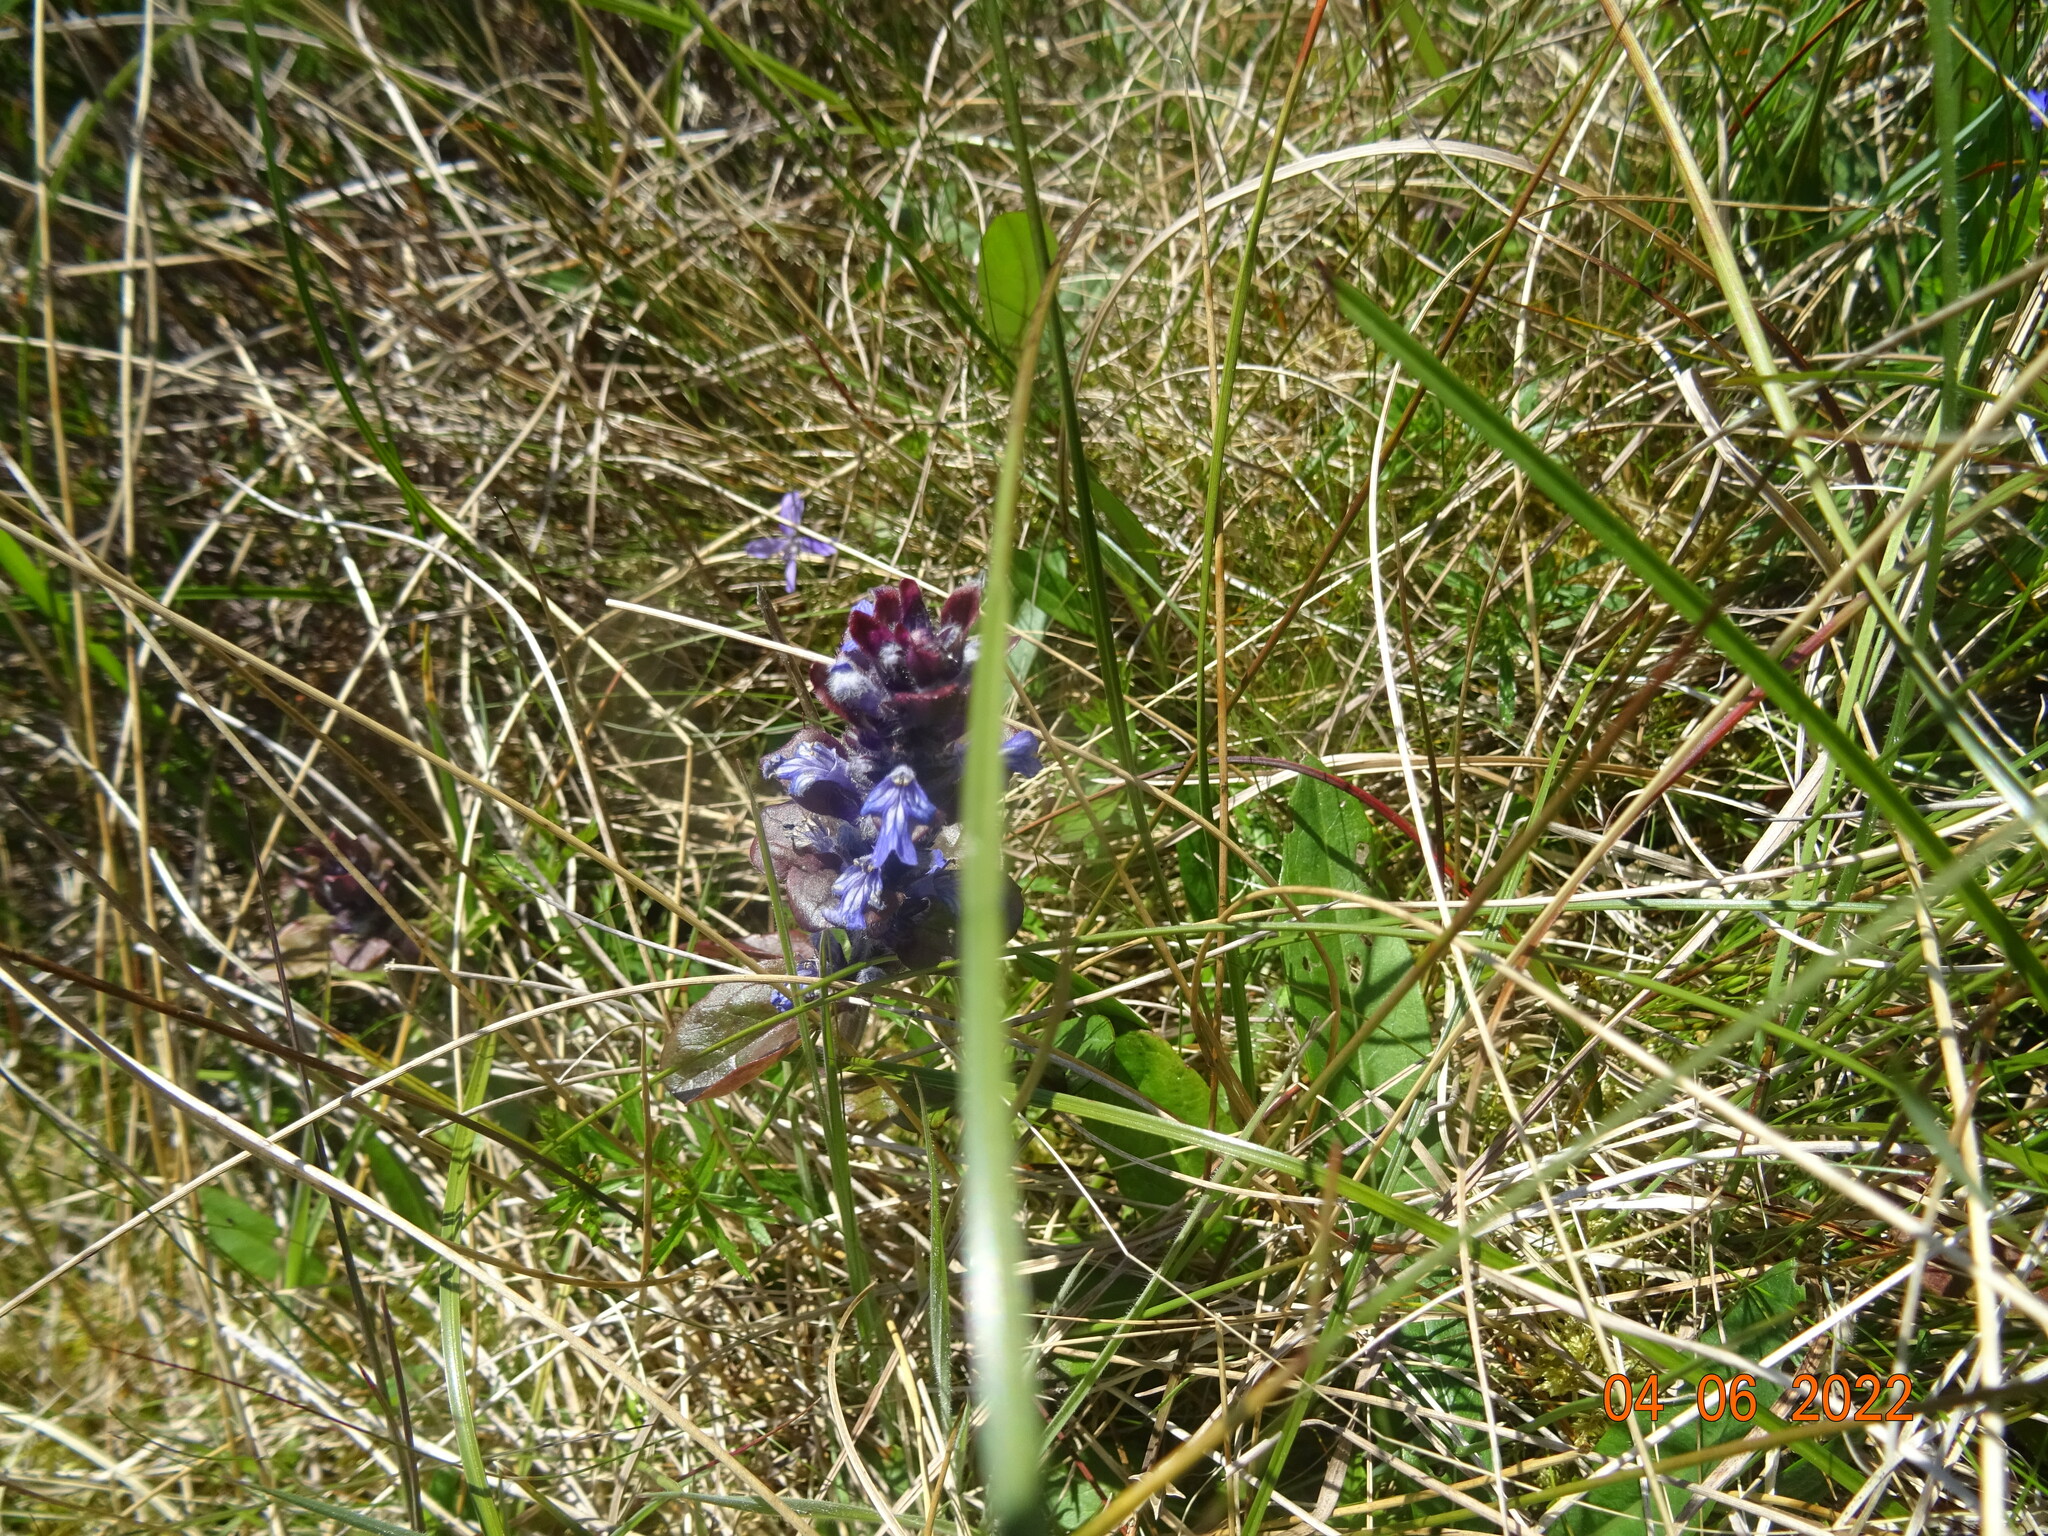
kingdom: Plantae
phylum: Tracheophyta
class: Magnoliopsida
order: Lamiales
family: Lamiaceae
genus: Ajuga
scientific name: Ajuga reptans
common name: Bugle
